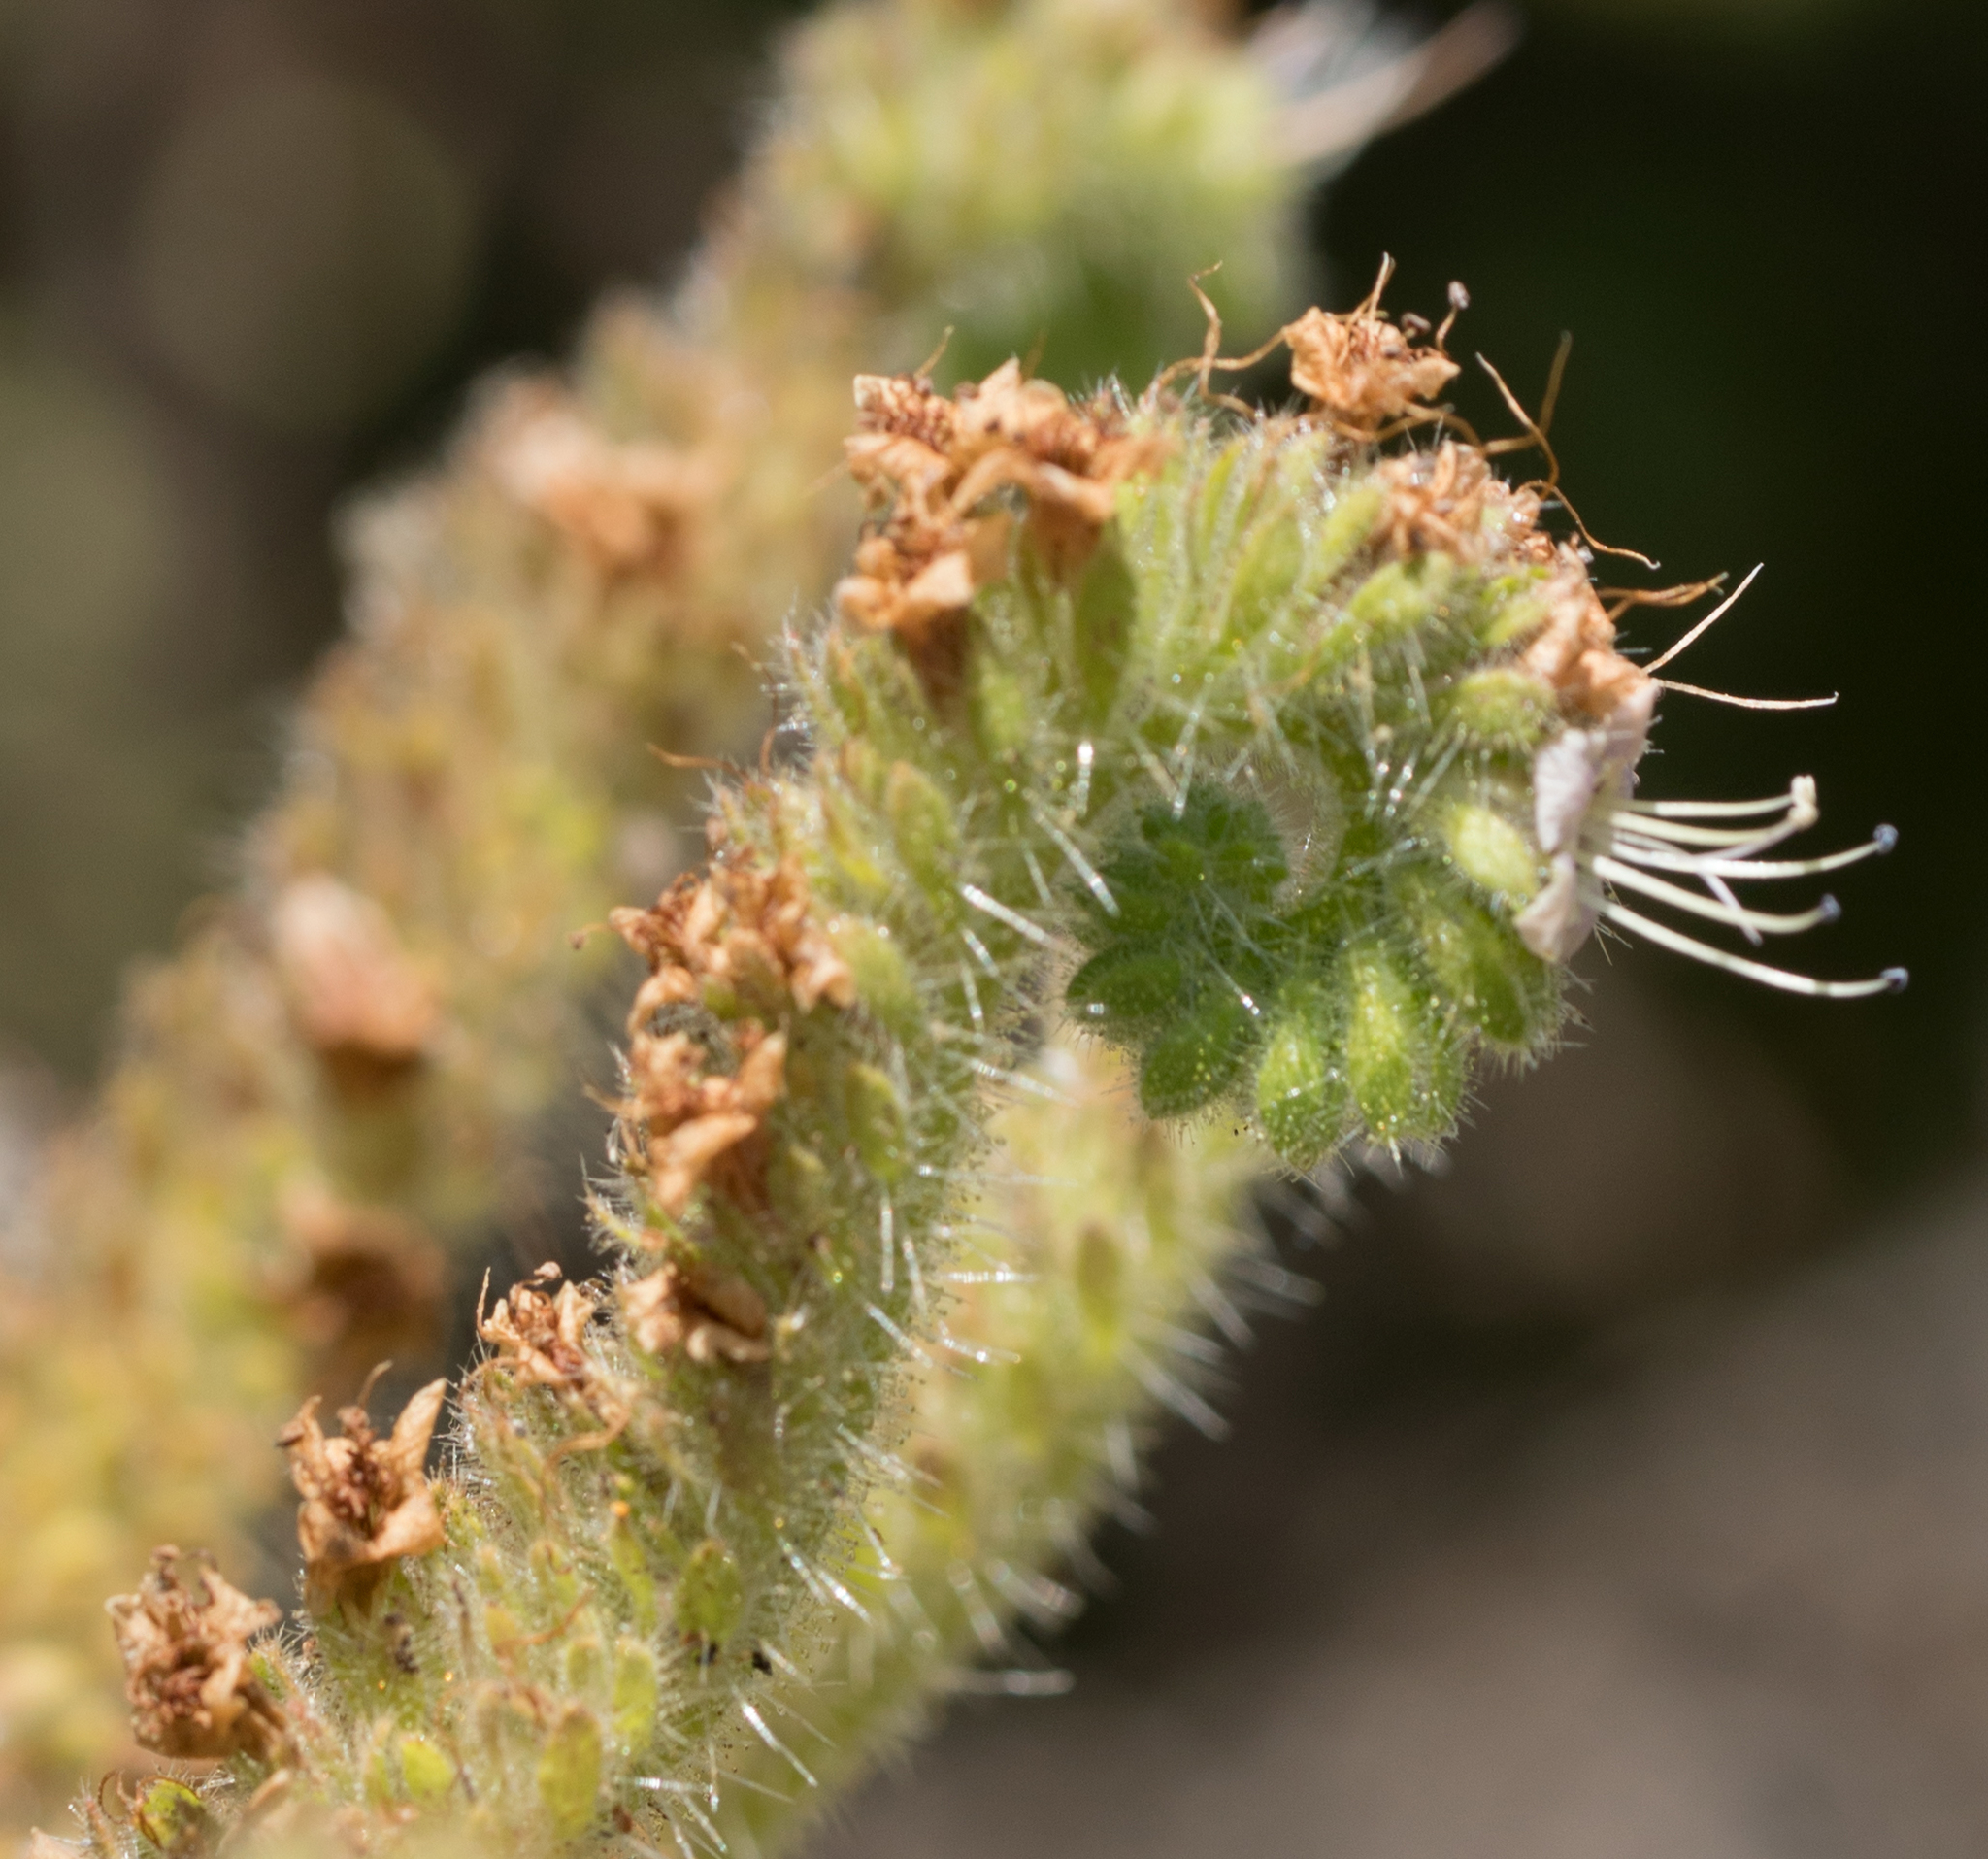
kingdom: Plantae
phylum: Tracheophyta
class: Magnoliopsida
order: Boraginales
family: Hydrophyllaceae
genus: Phacelia
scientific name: Phacelia ramosissima
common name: Branching phacelia
